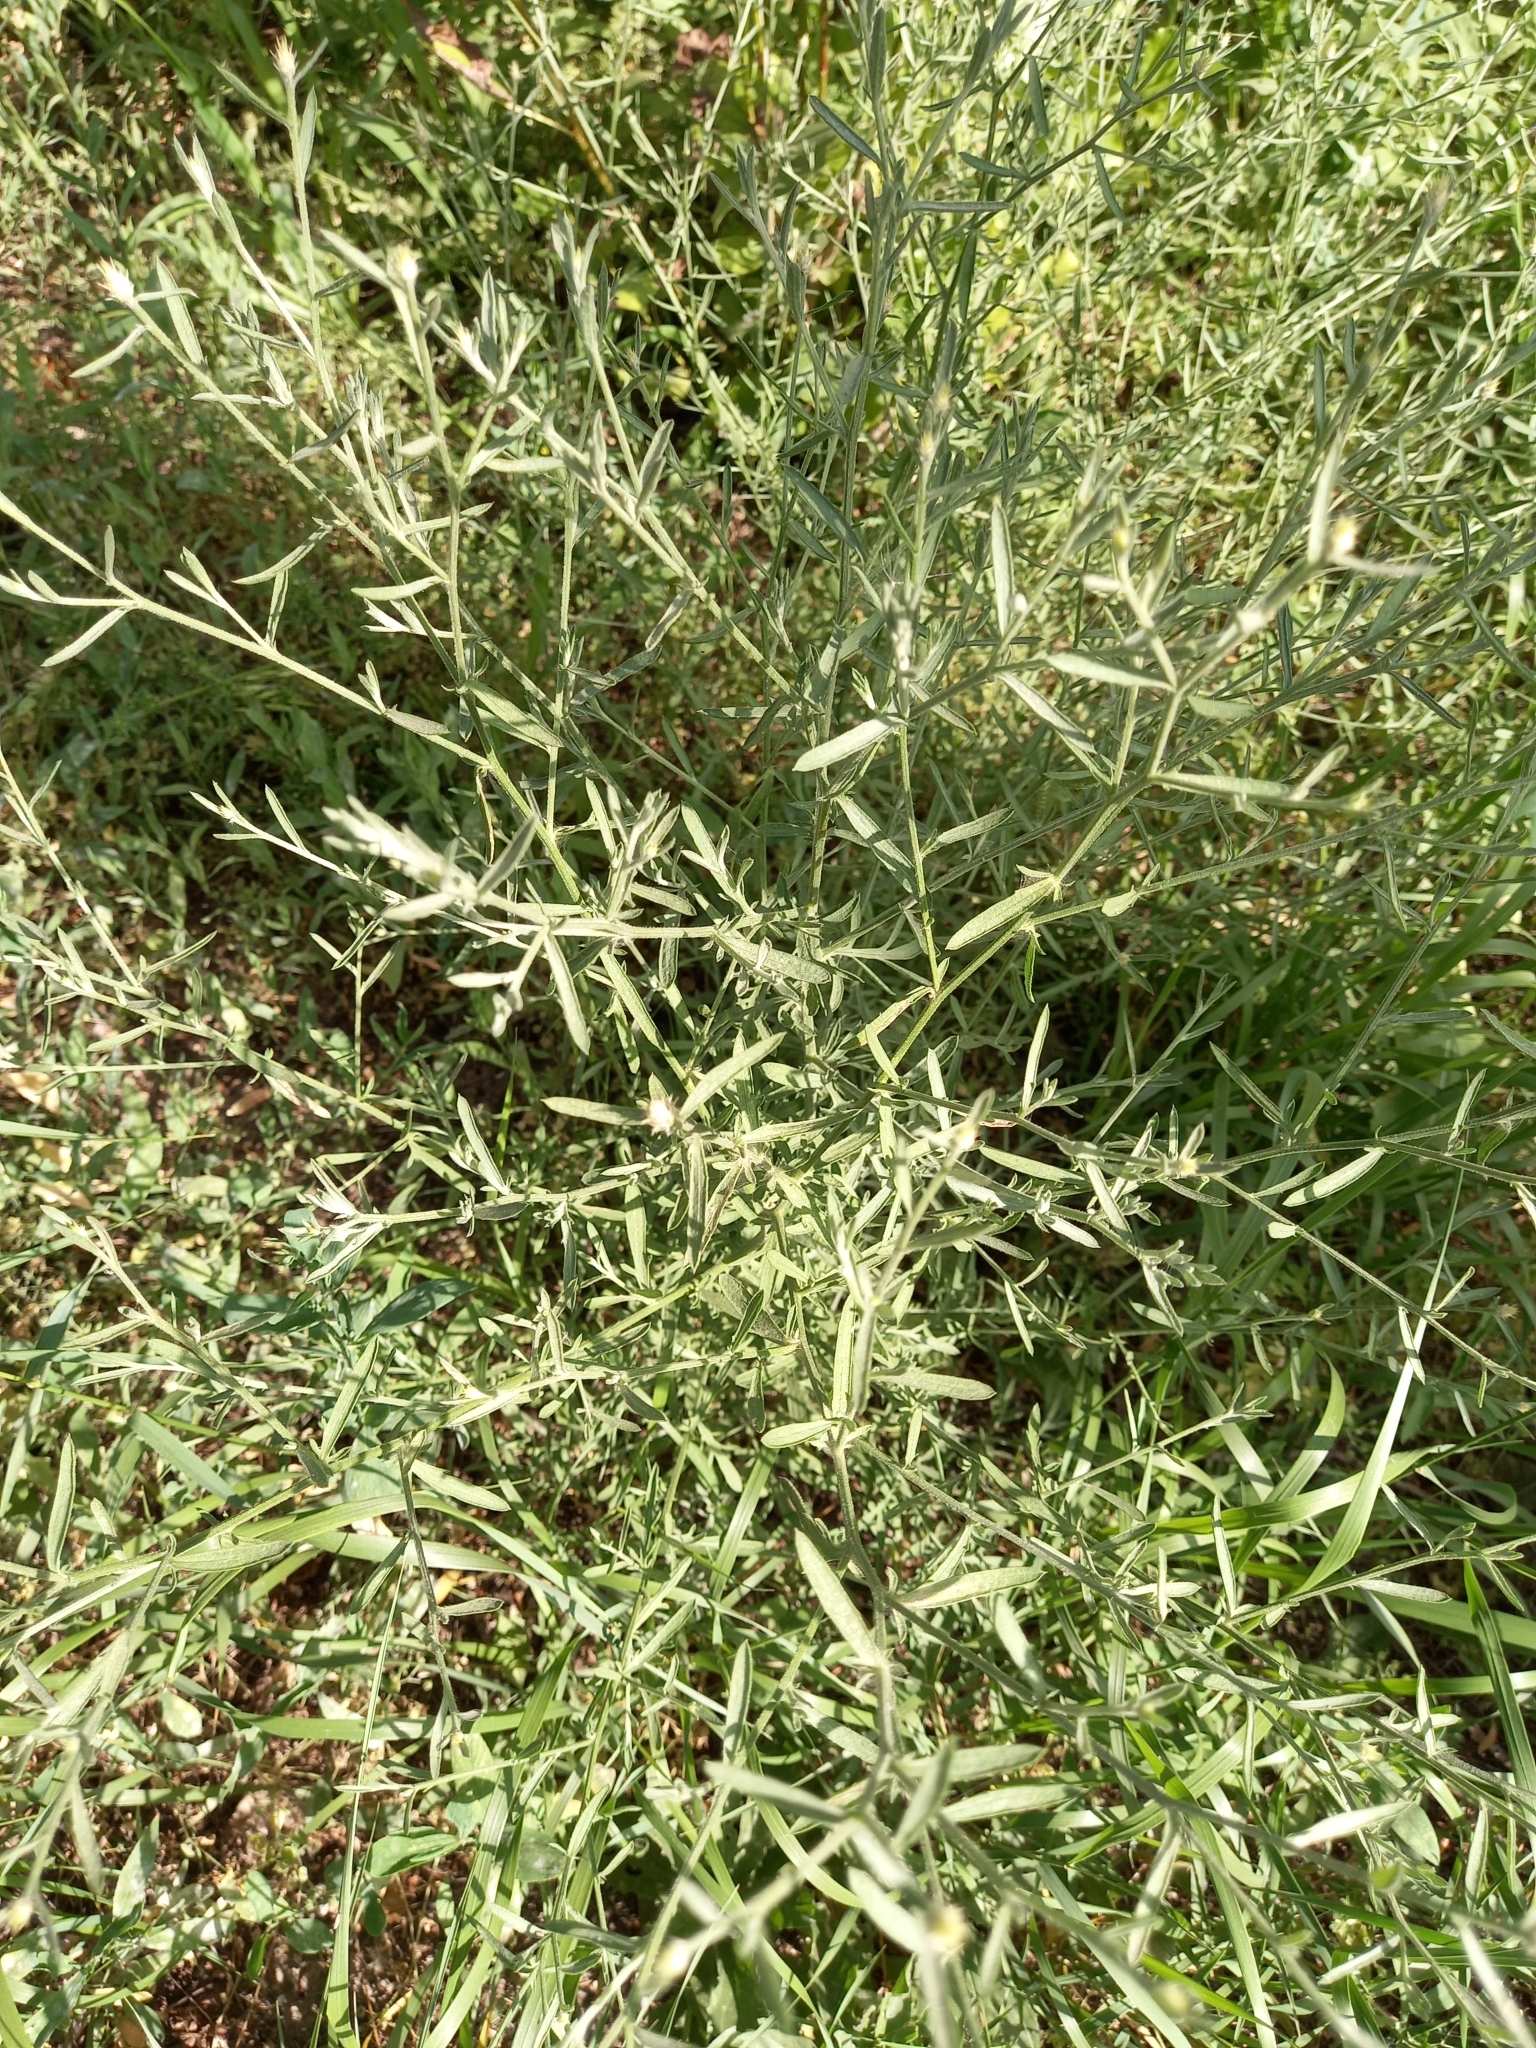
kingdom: Plantae
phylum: Tracheophyta
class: Magnoliopsida
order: Asterales
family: Asteraceae
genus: Centaurea
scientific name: Centaurea diffusa
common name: Diffuse knapweed
